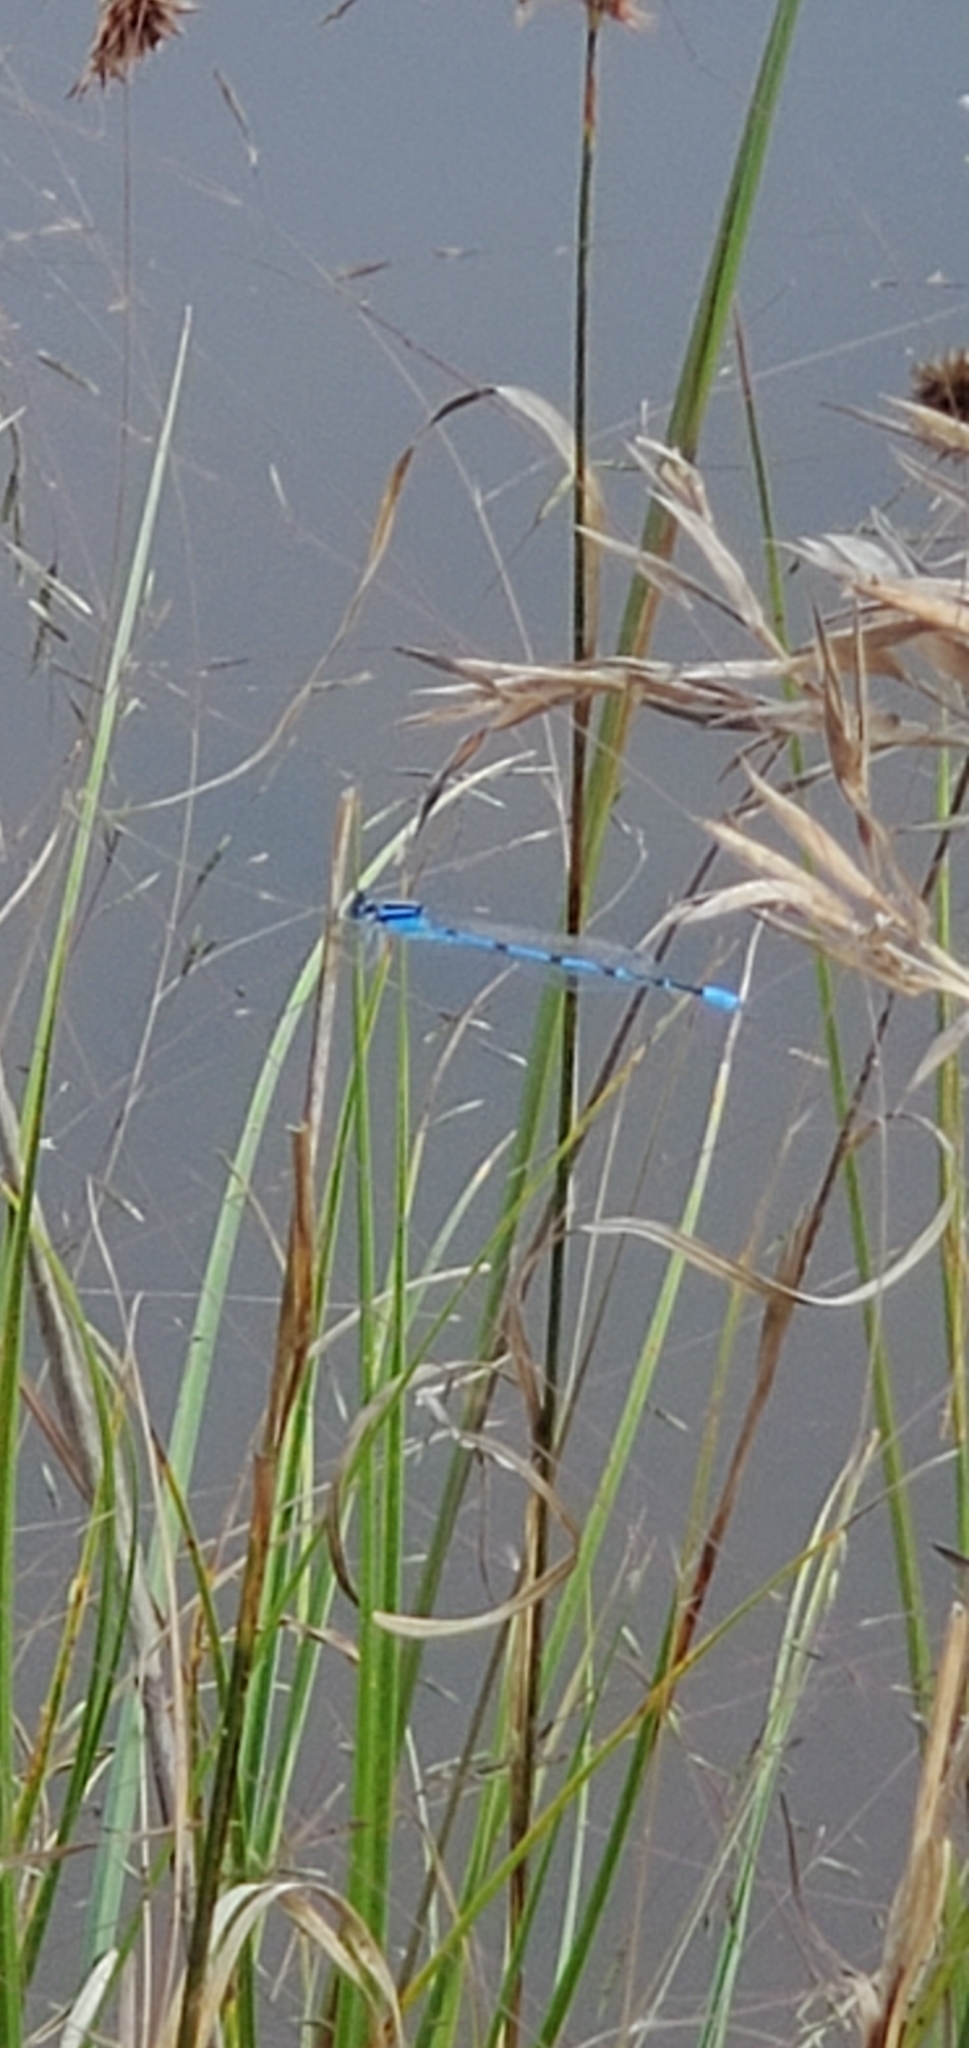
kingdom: Animalia
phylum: Arthropoda
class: Insecta
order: Odonata
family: Coenagrionidae
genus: Enallagma
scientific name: Enallagma civile
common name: Damselfly
